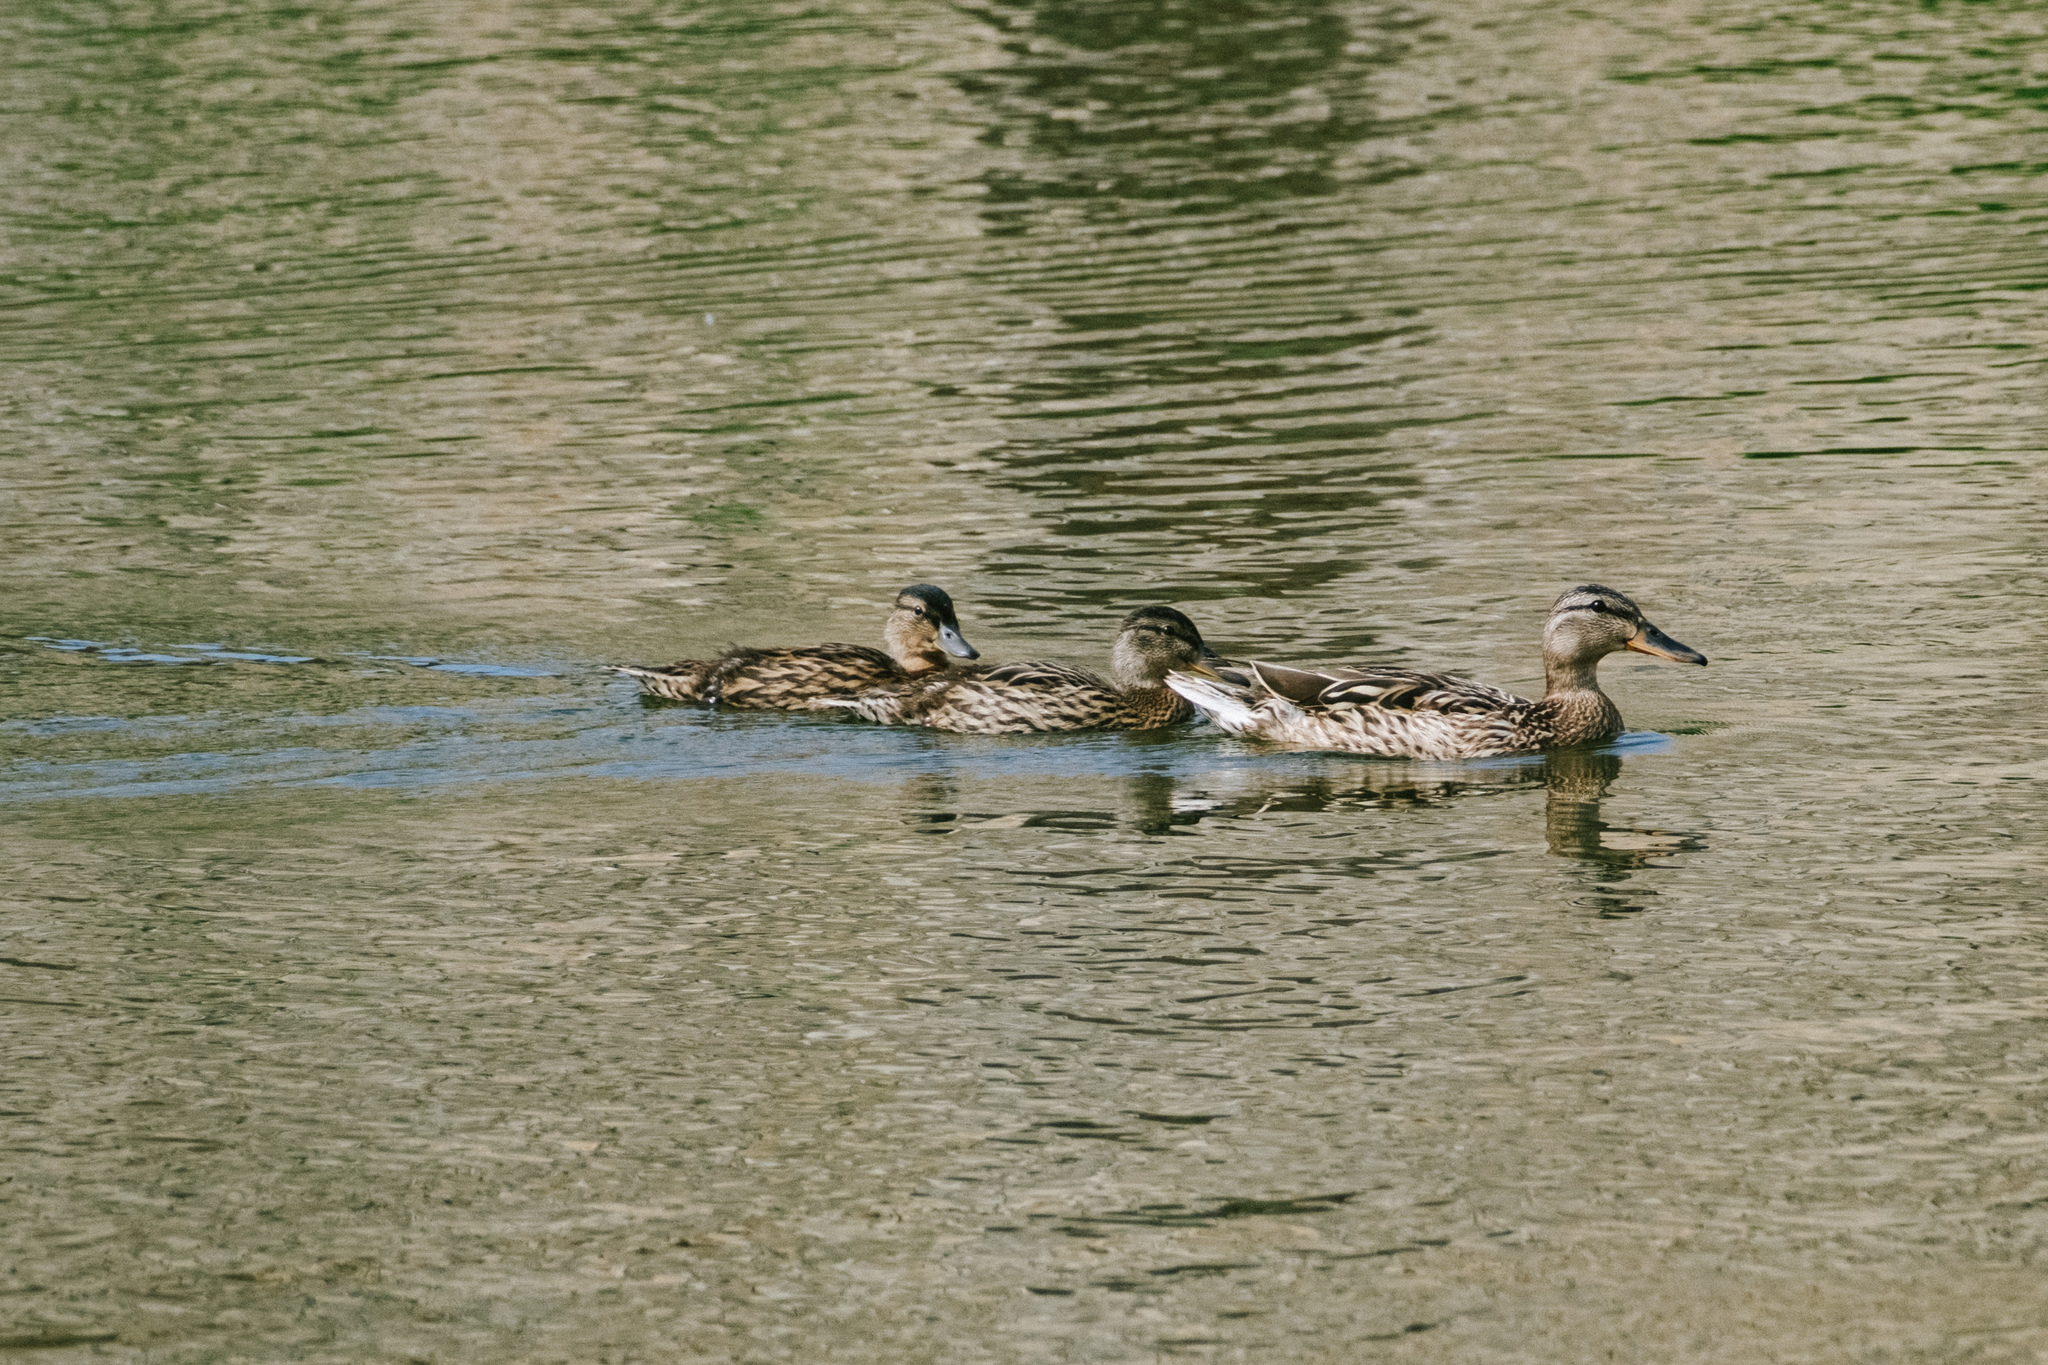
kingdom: Animalia
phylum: Chordata
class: Aves
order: Anseriformes
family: Anatidae
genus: Anas
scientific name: Anas platyrhynchos
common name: Mallard
